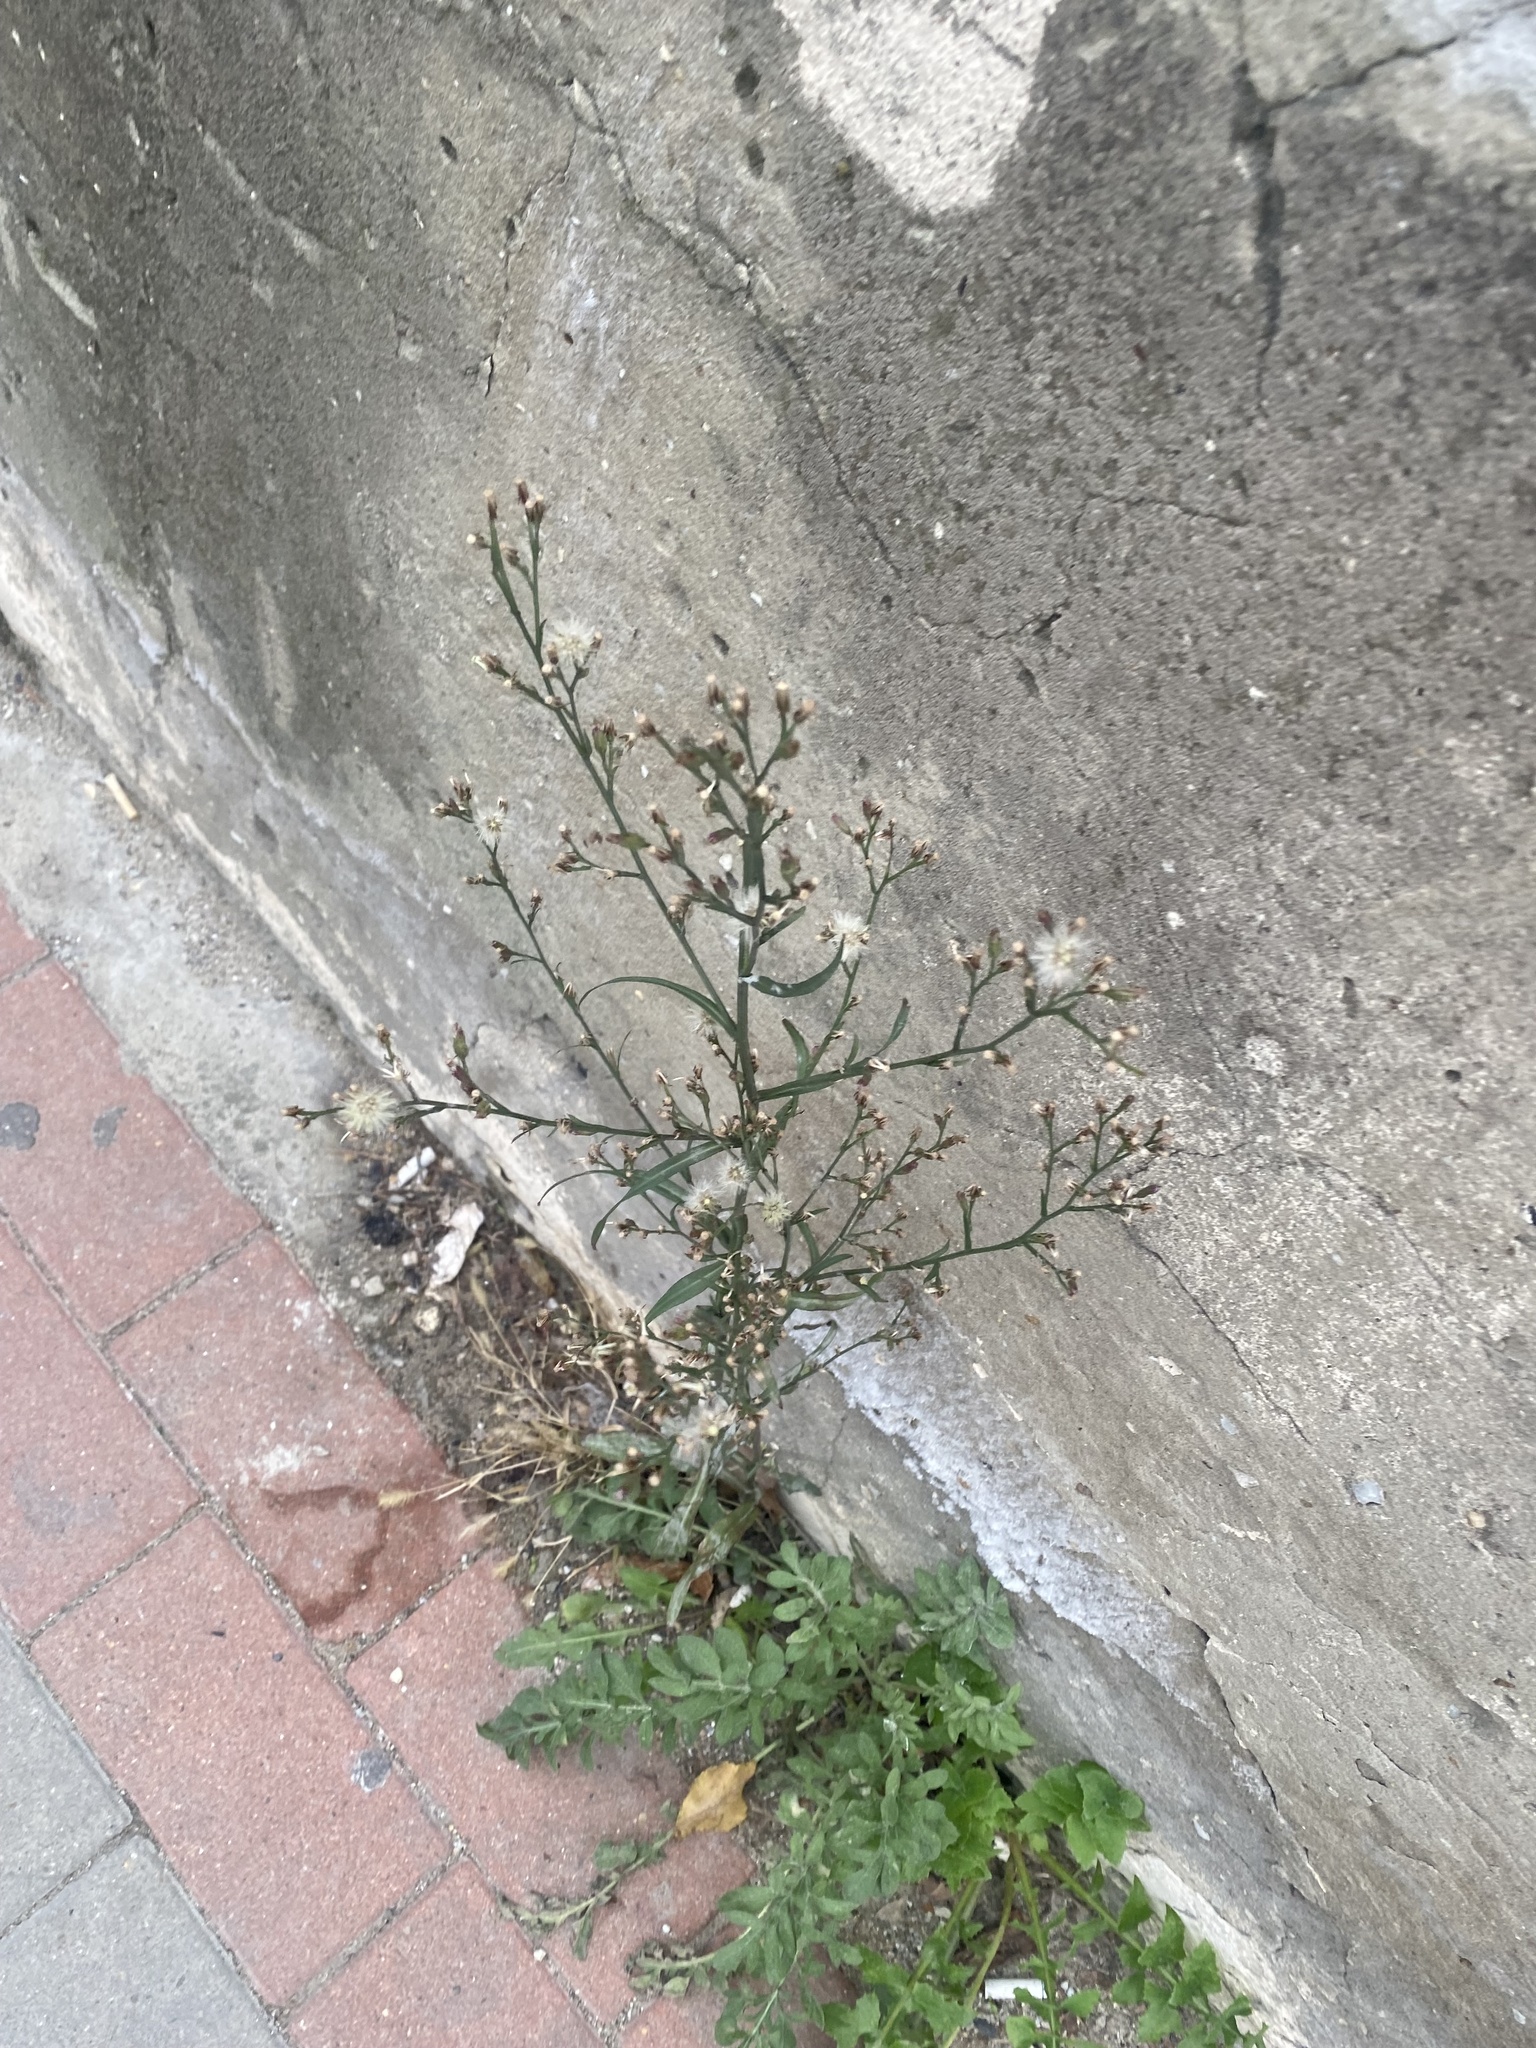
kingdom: Plantae
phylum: Tracheophyta
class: Magnoliopsida
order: Asterales
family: Asteraceae
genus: Symphyotrichum
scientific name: Symphyotrichum subulatum
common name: Annual saltmarsh aster
